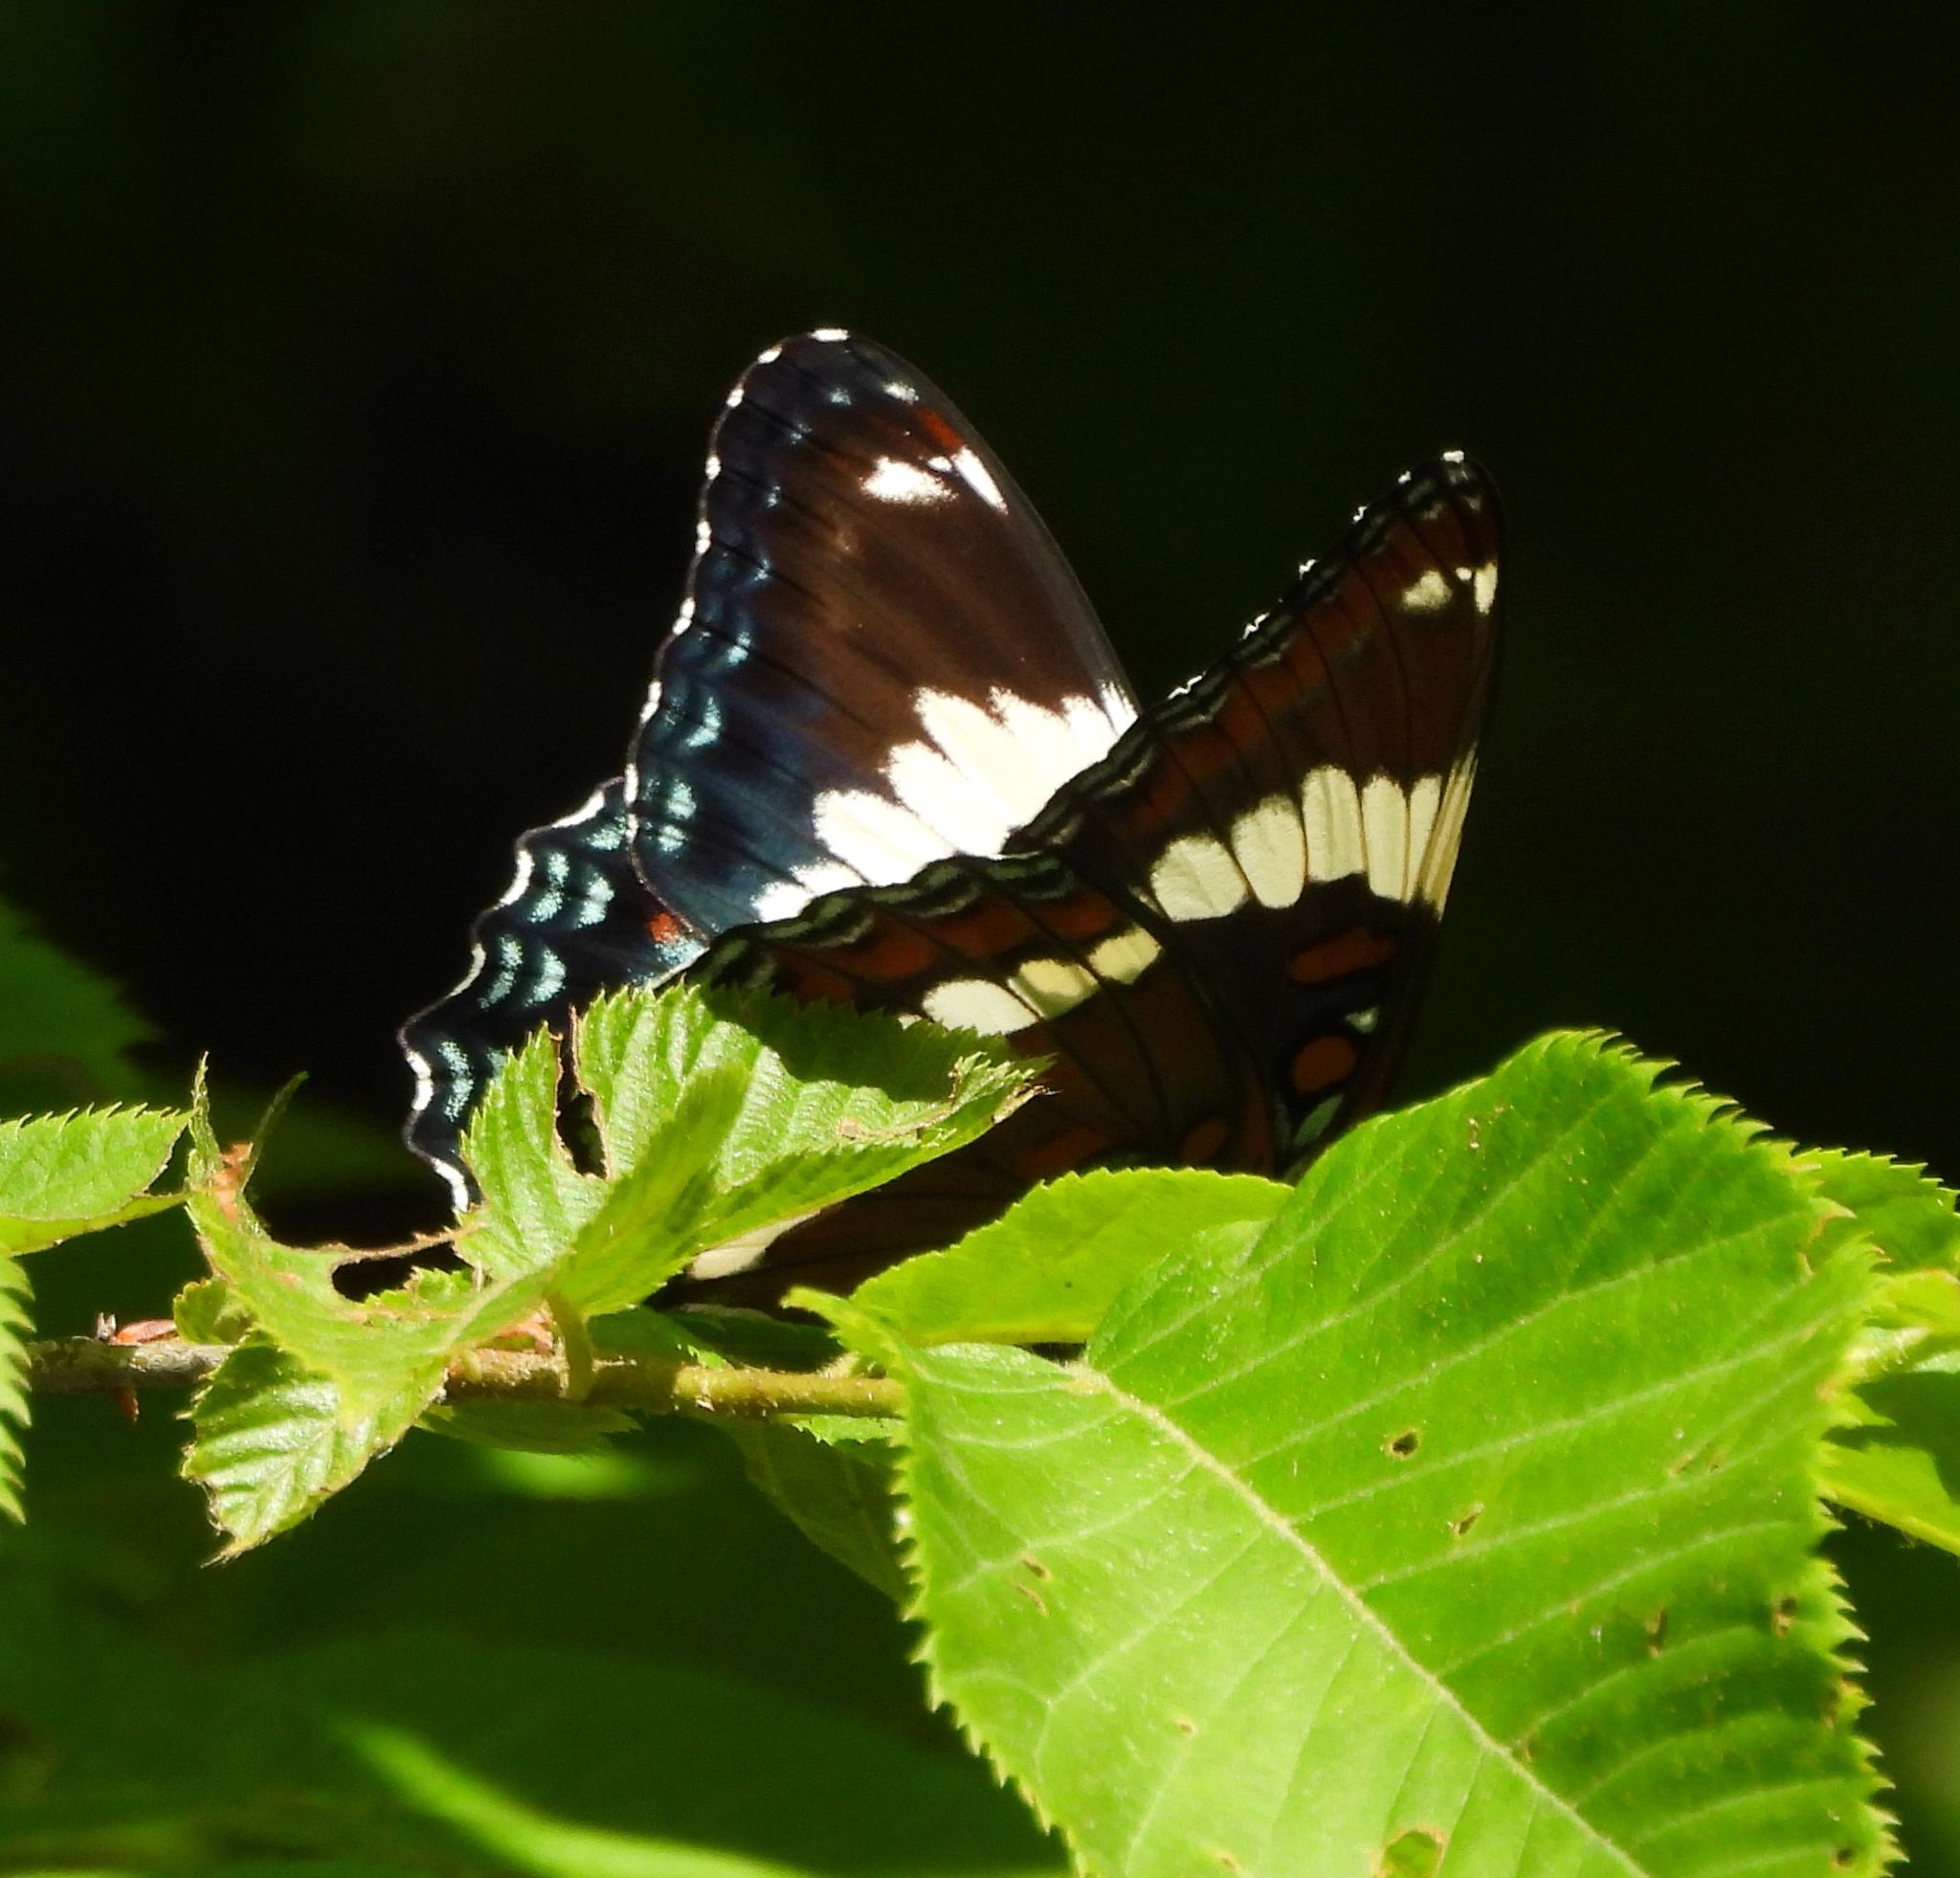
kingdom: Animalia
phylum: Arthropoda
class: Insecta
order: Lepidoptera
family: Nymphalidae
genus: Limenitis
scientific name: Limenitis arthemis
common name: Red-spotted admiral
